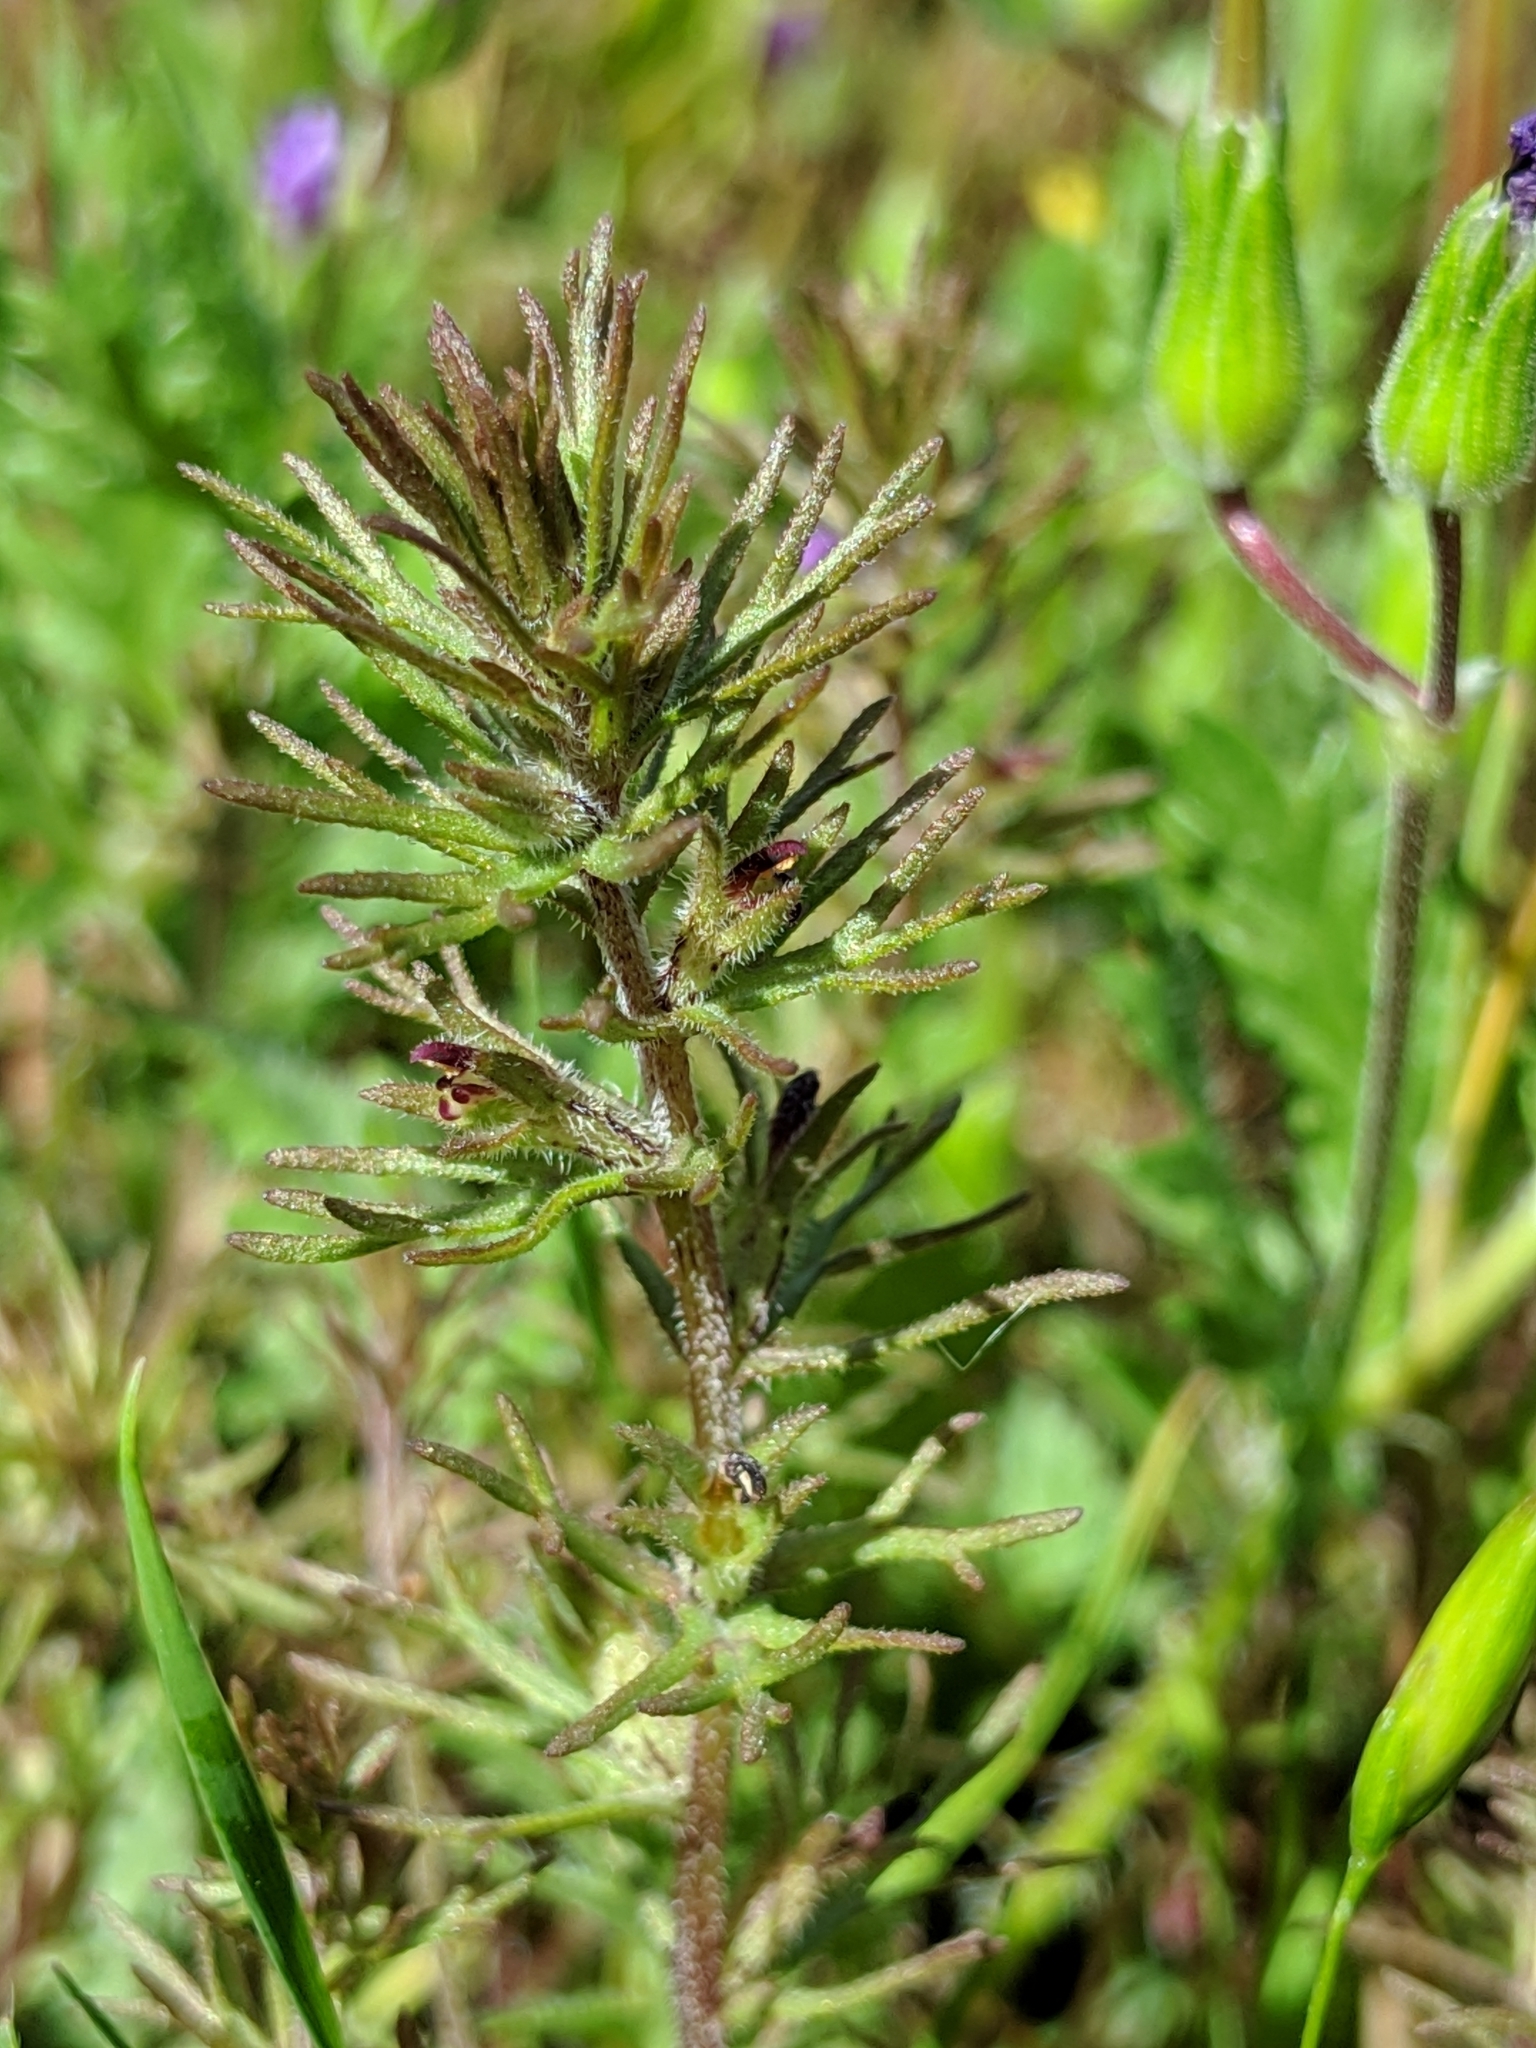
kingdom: Plantae
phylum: Tracheophyta
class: Magnoliopsida
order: Lamiales
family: Orobanchaceae
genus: Triphysaria
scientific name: Triphysaria pusilla
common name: Dwarf false owl-clover
